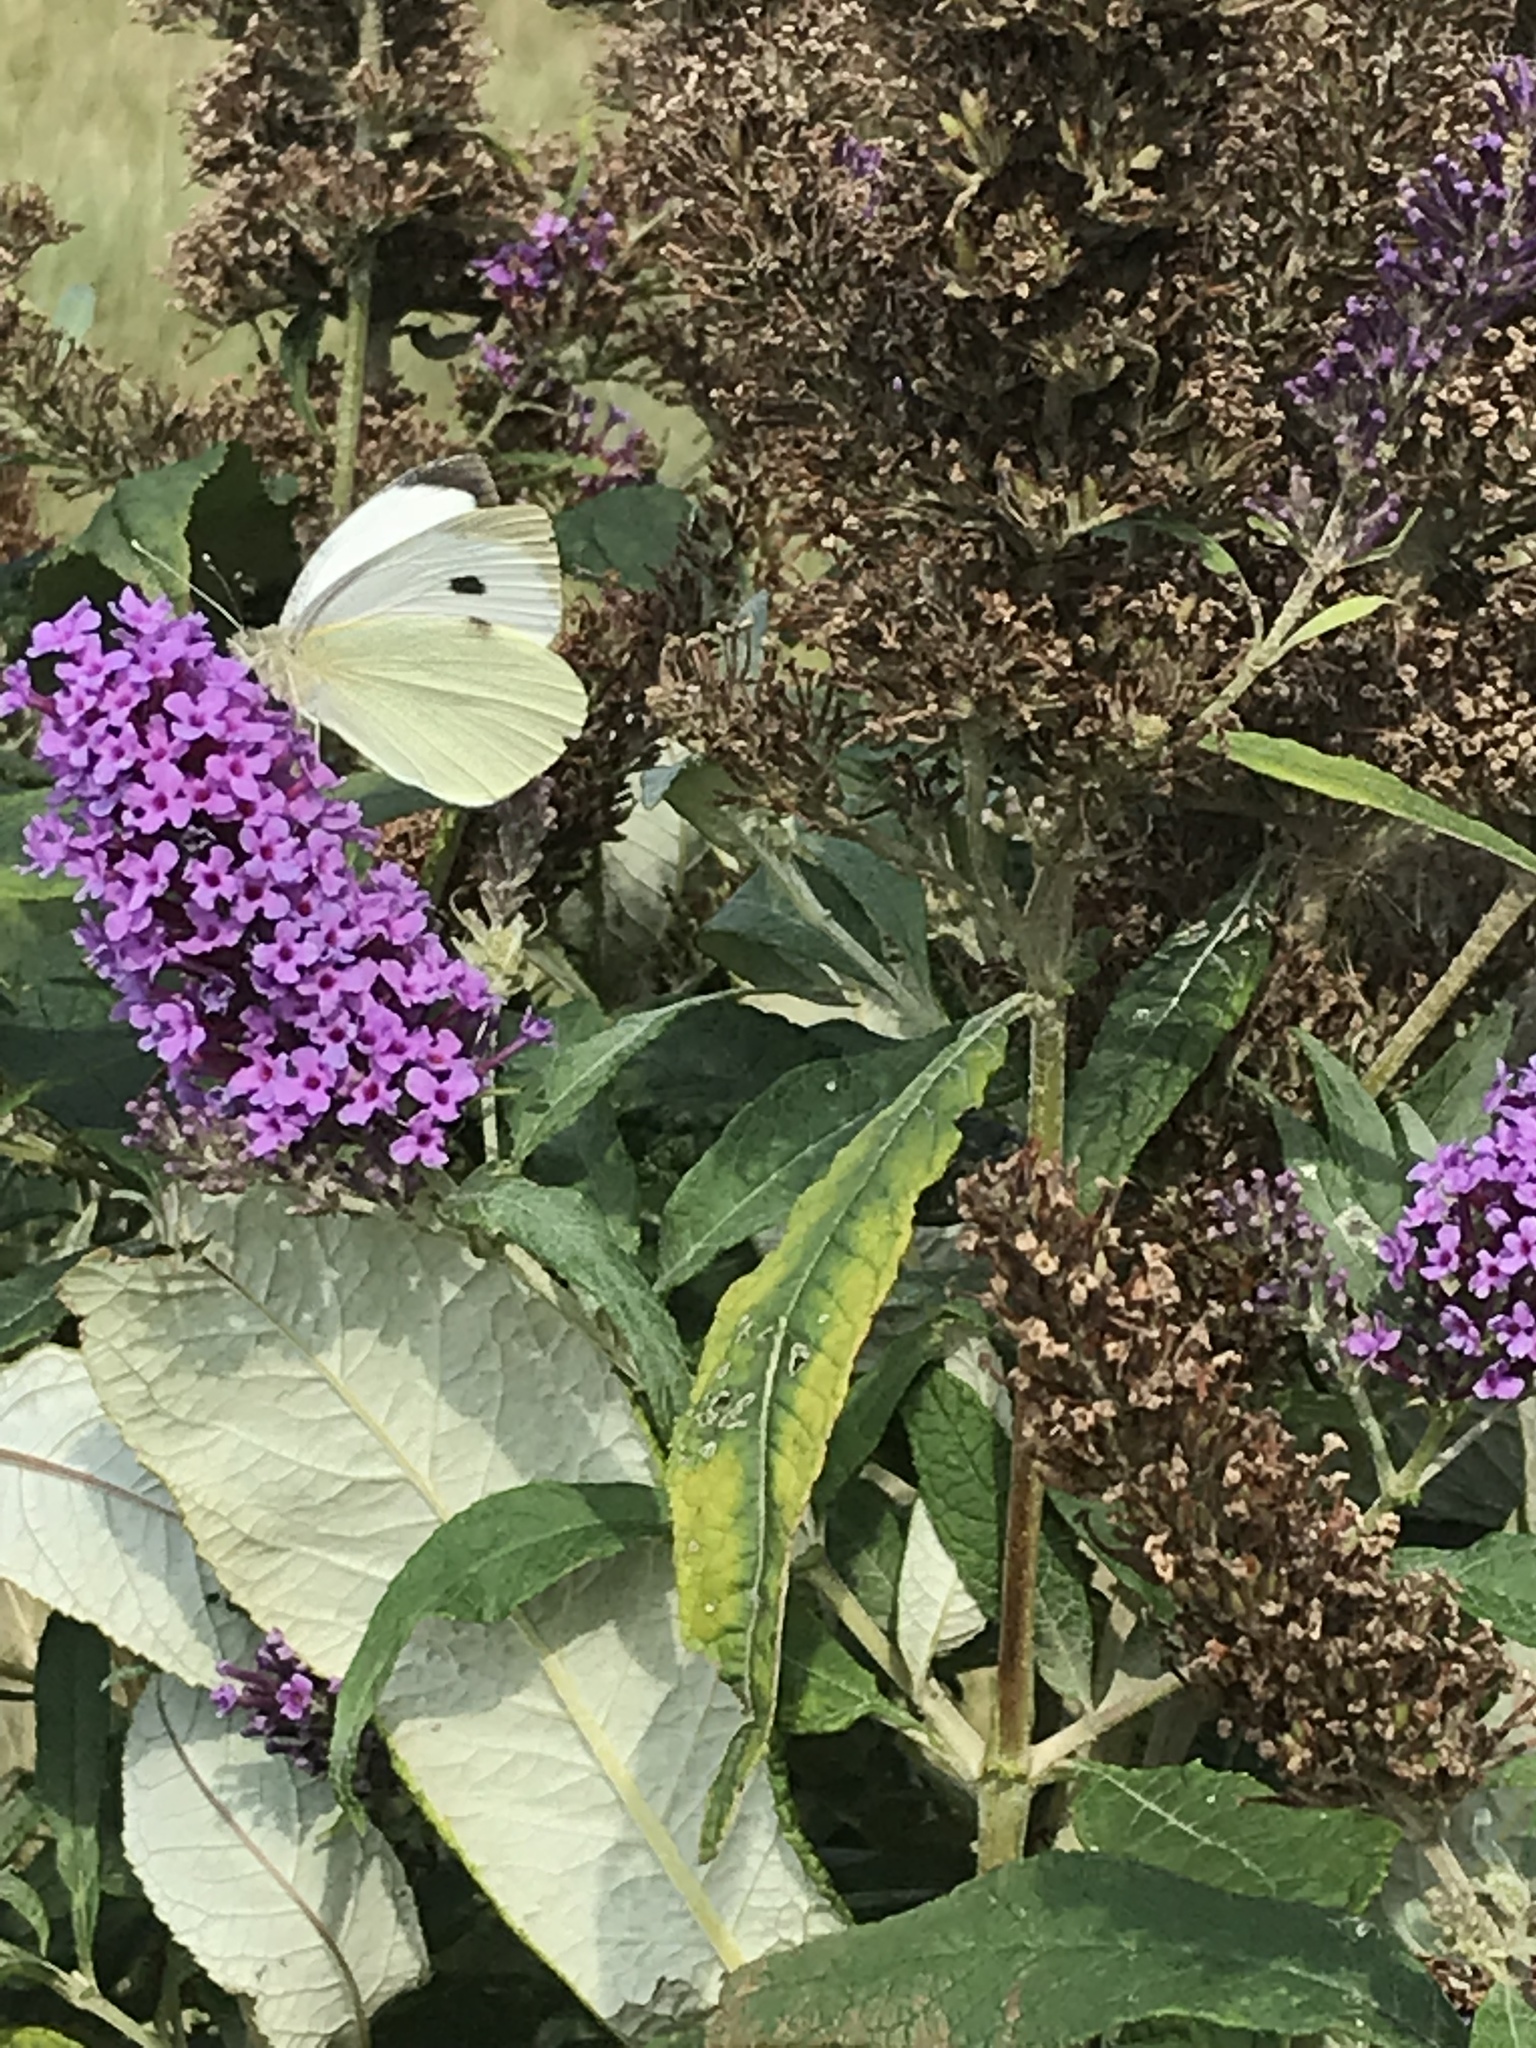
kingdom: Animalia
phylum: Arthropoda
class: Insecta
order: Lepidoptera
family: Pieridae
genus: Pieris
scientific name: Pieris brassicae
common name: Large white
